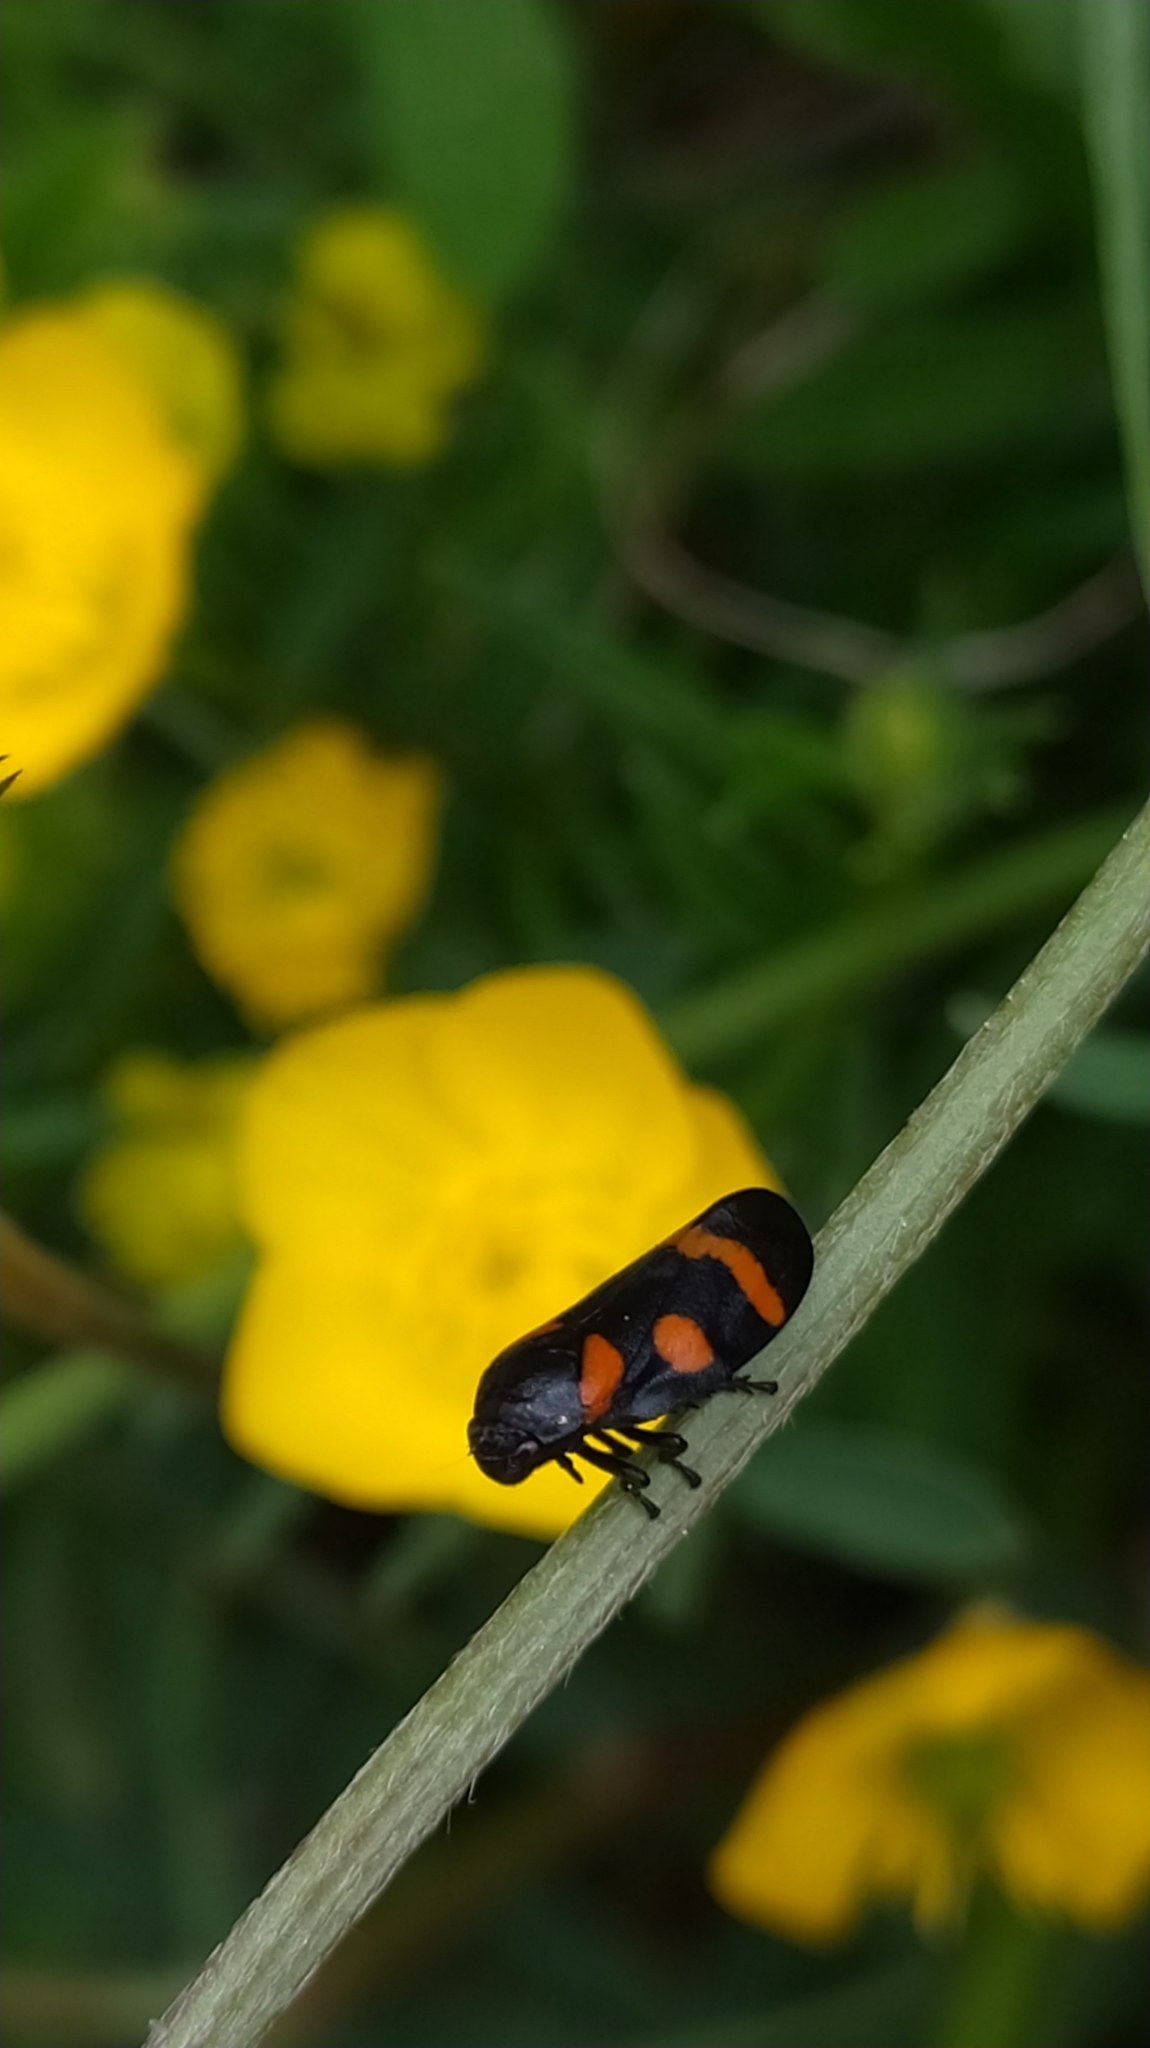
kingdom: Animalia
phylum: Arthropoda
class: Insecta
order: Hemiptera
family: Cercopidae
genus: Cercopis
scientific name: Cercopis
